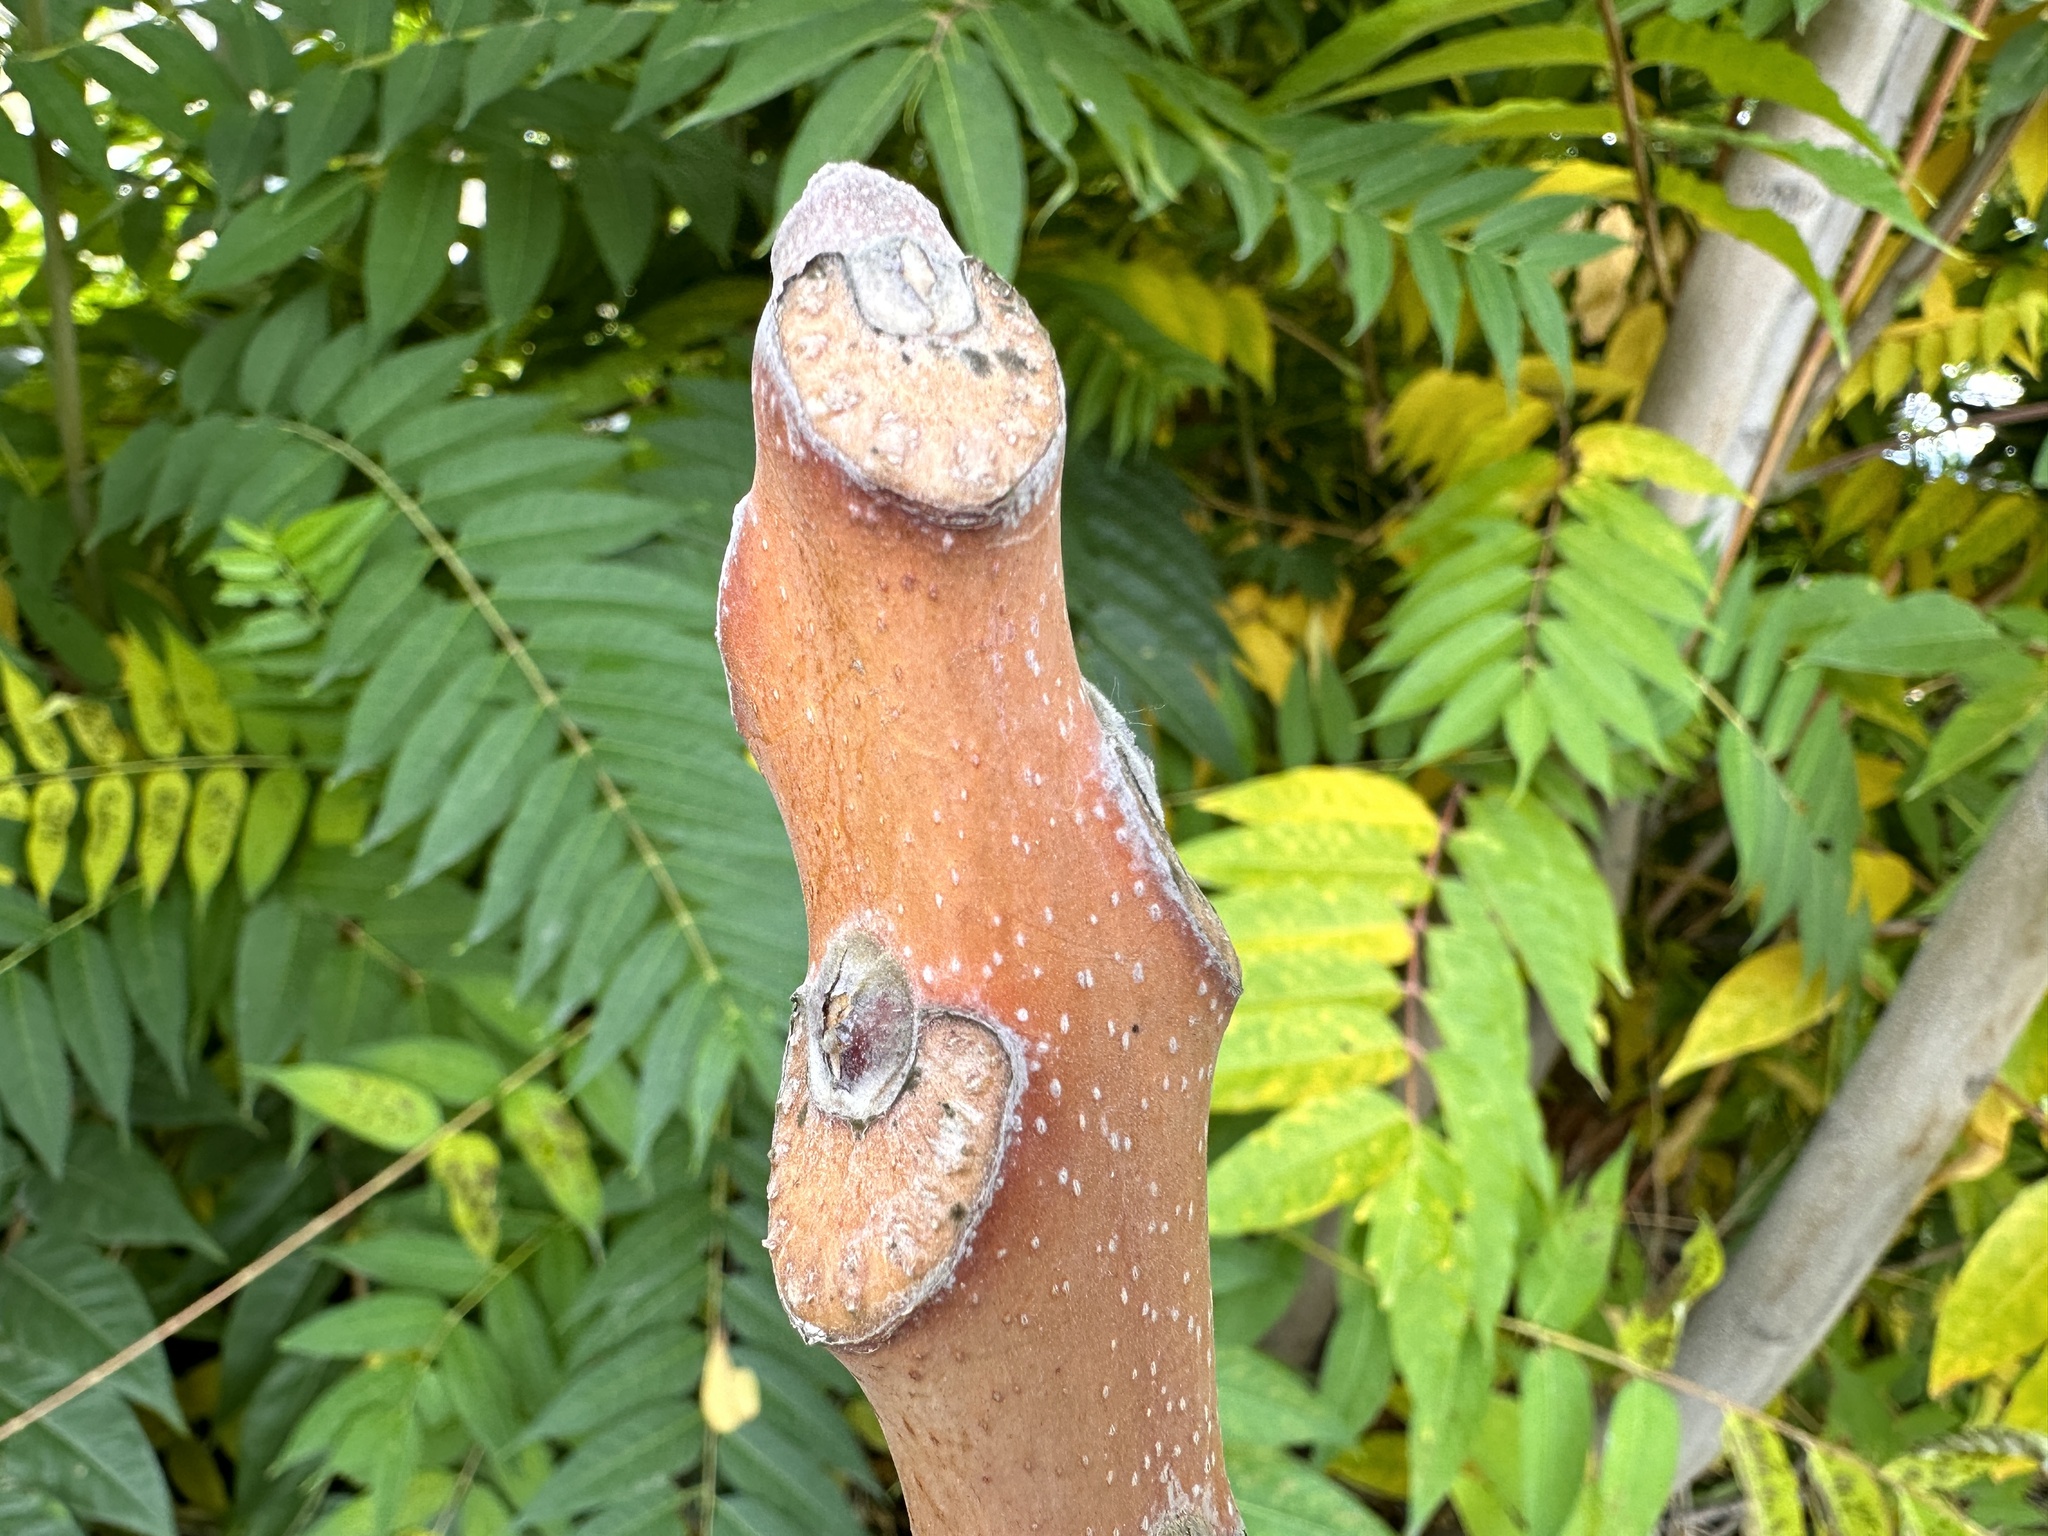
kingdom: Plantae
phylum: Tracheophyta
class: Magnoliopsida
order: Sapindales
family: Simaroubaceae
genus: Ailanthus
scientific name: Ailanthus altissima
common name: Tree-of-heaven
